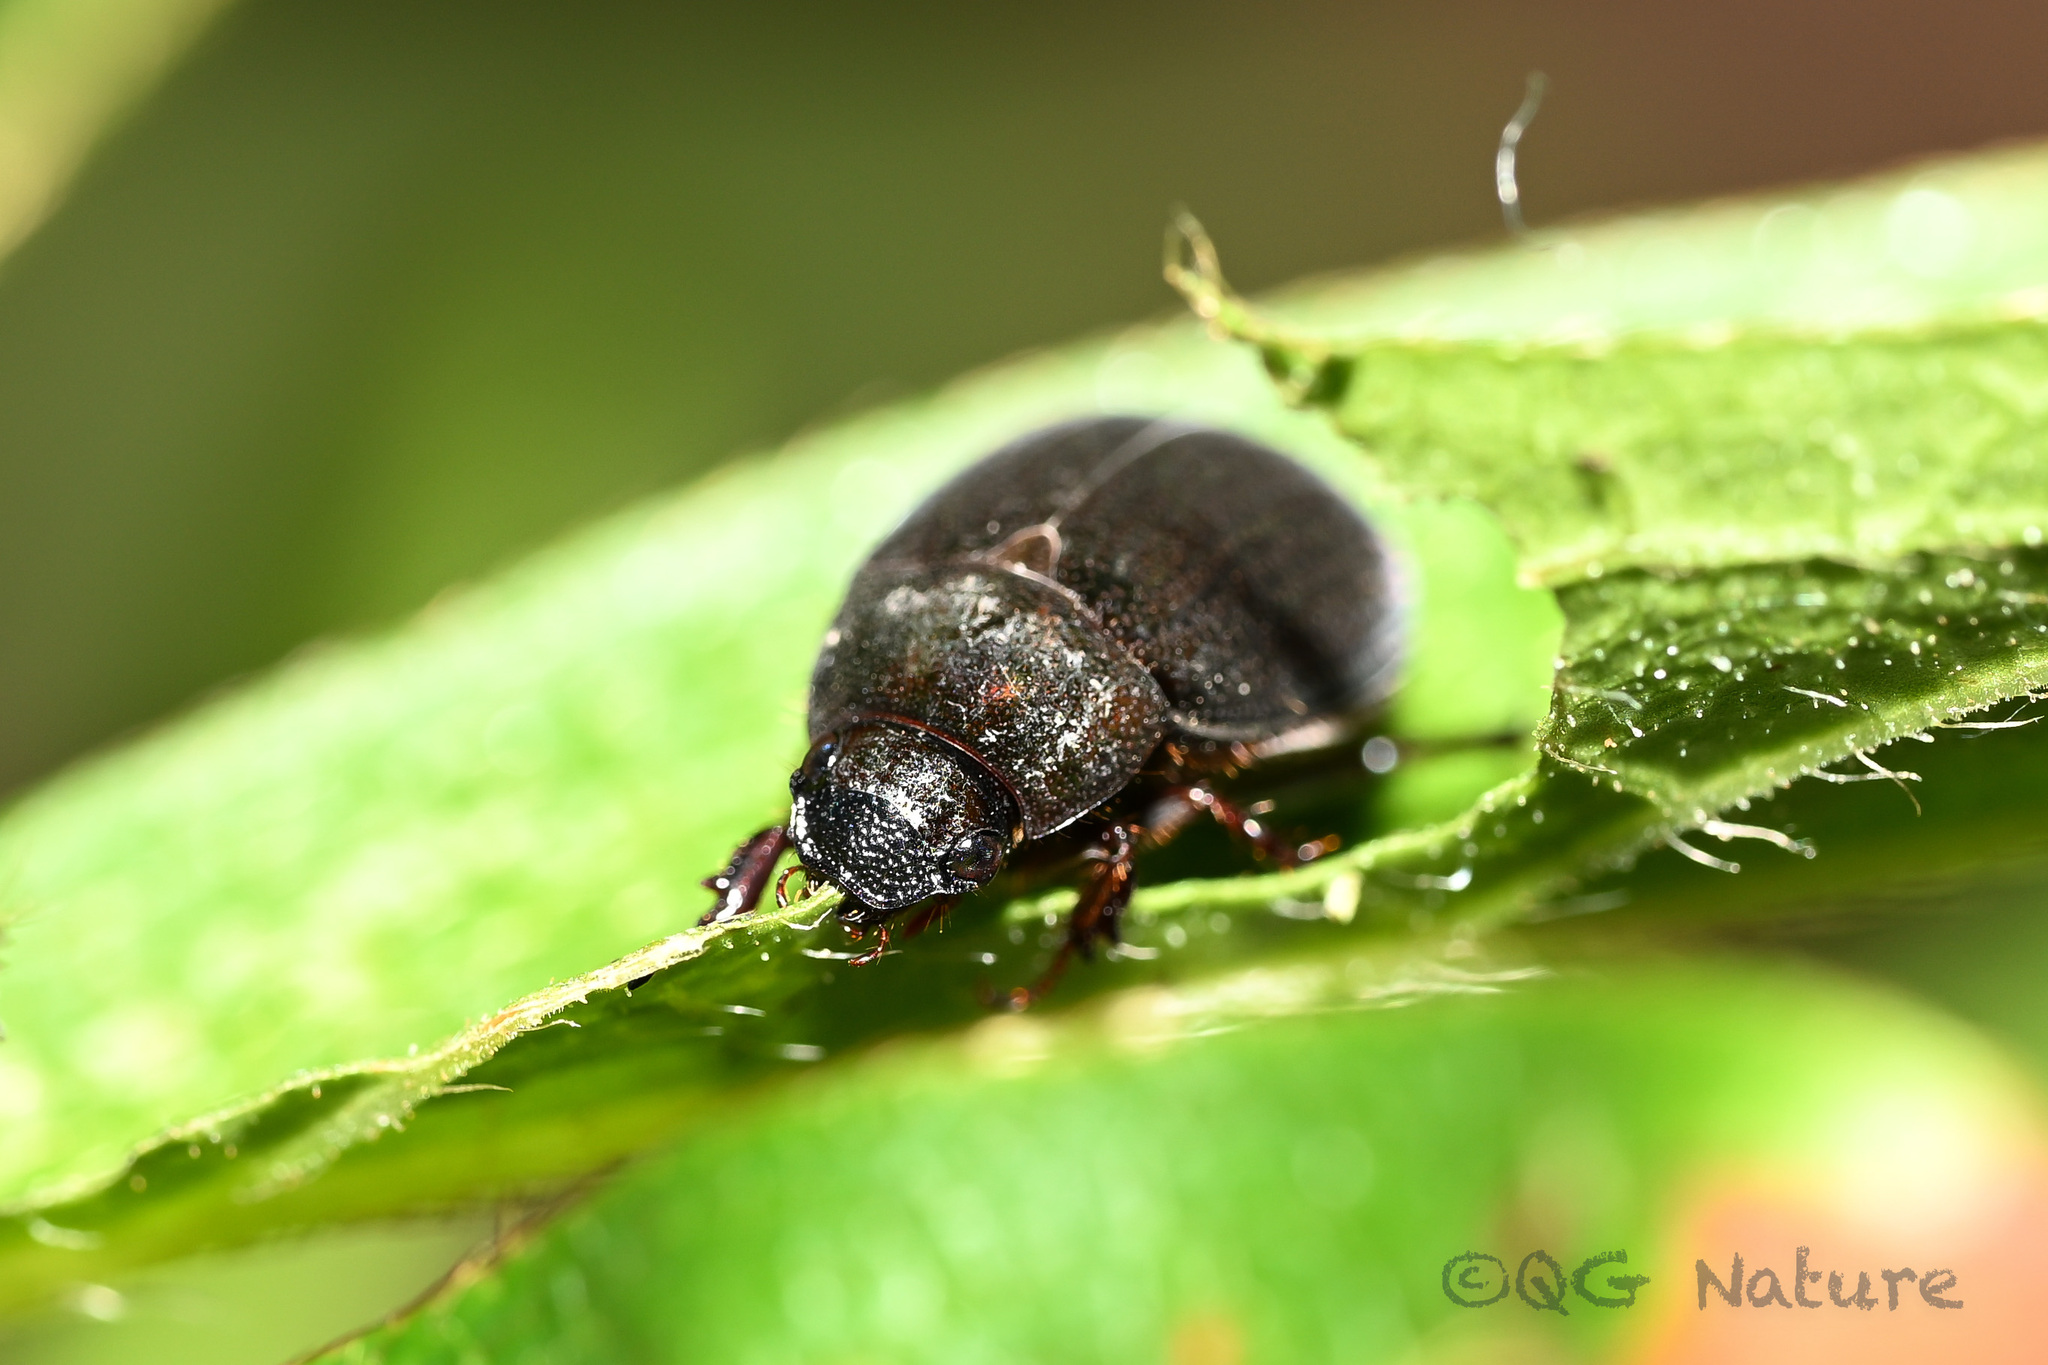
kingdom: Animalia
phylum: Arthropoda
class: Insecta
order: Coleoptera
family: Scarabaeidae
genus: Maladera
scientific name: Maladera orientalis
